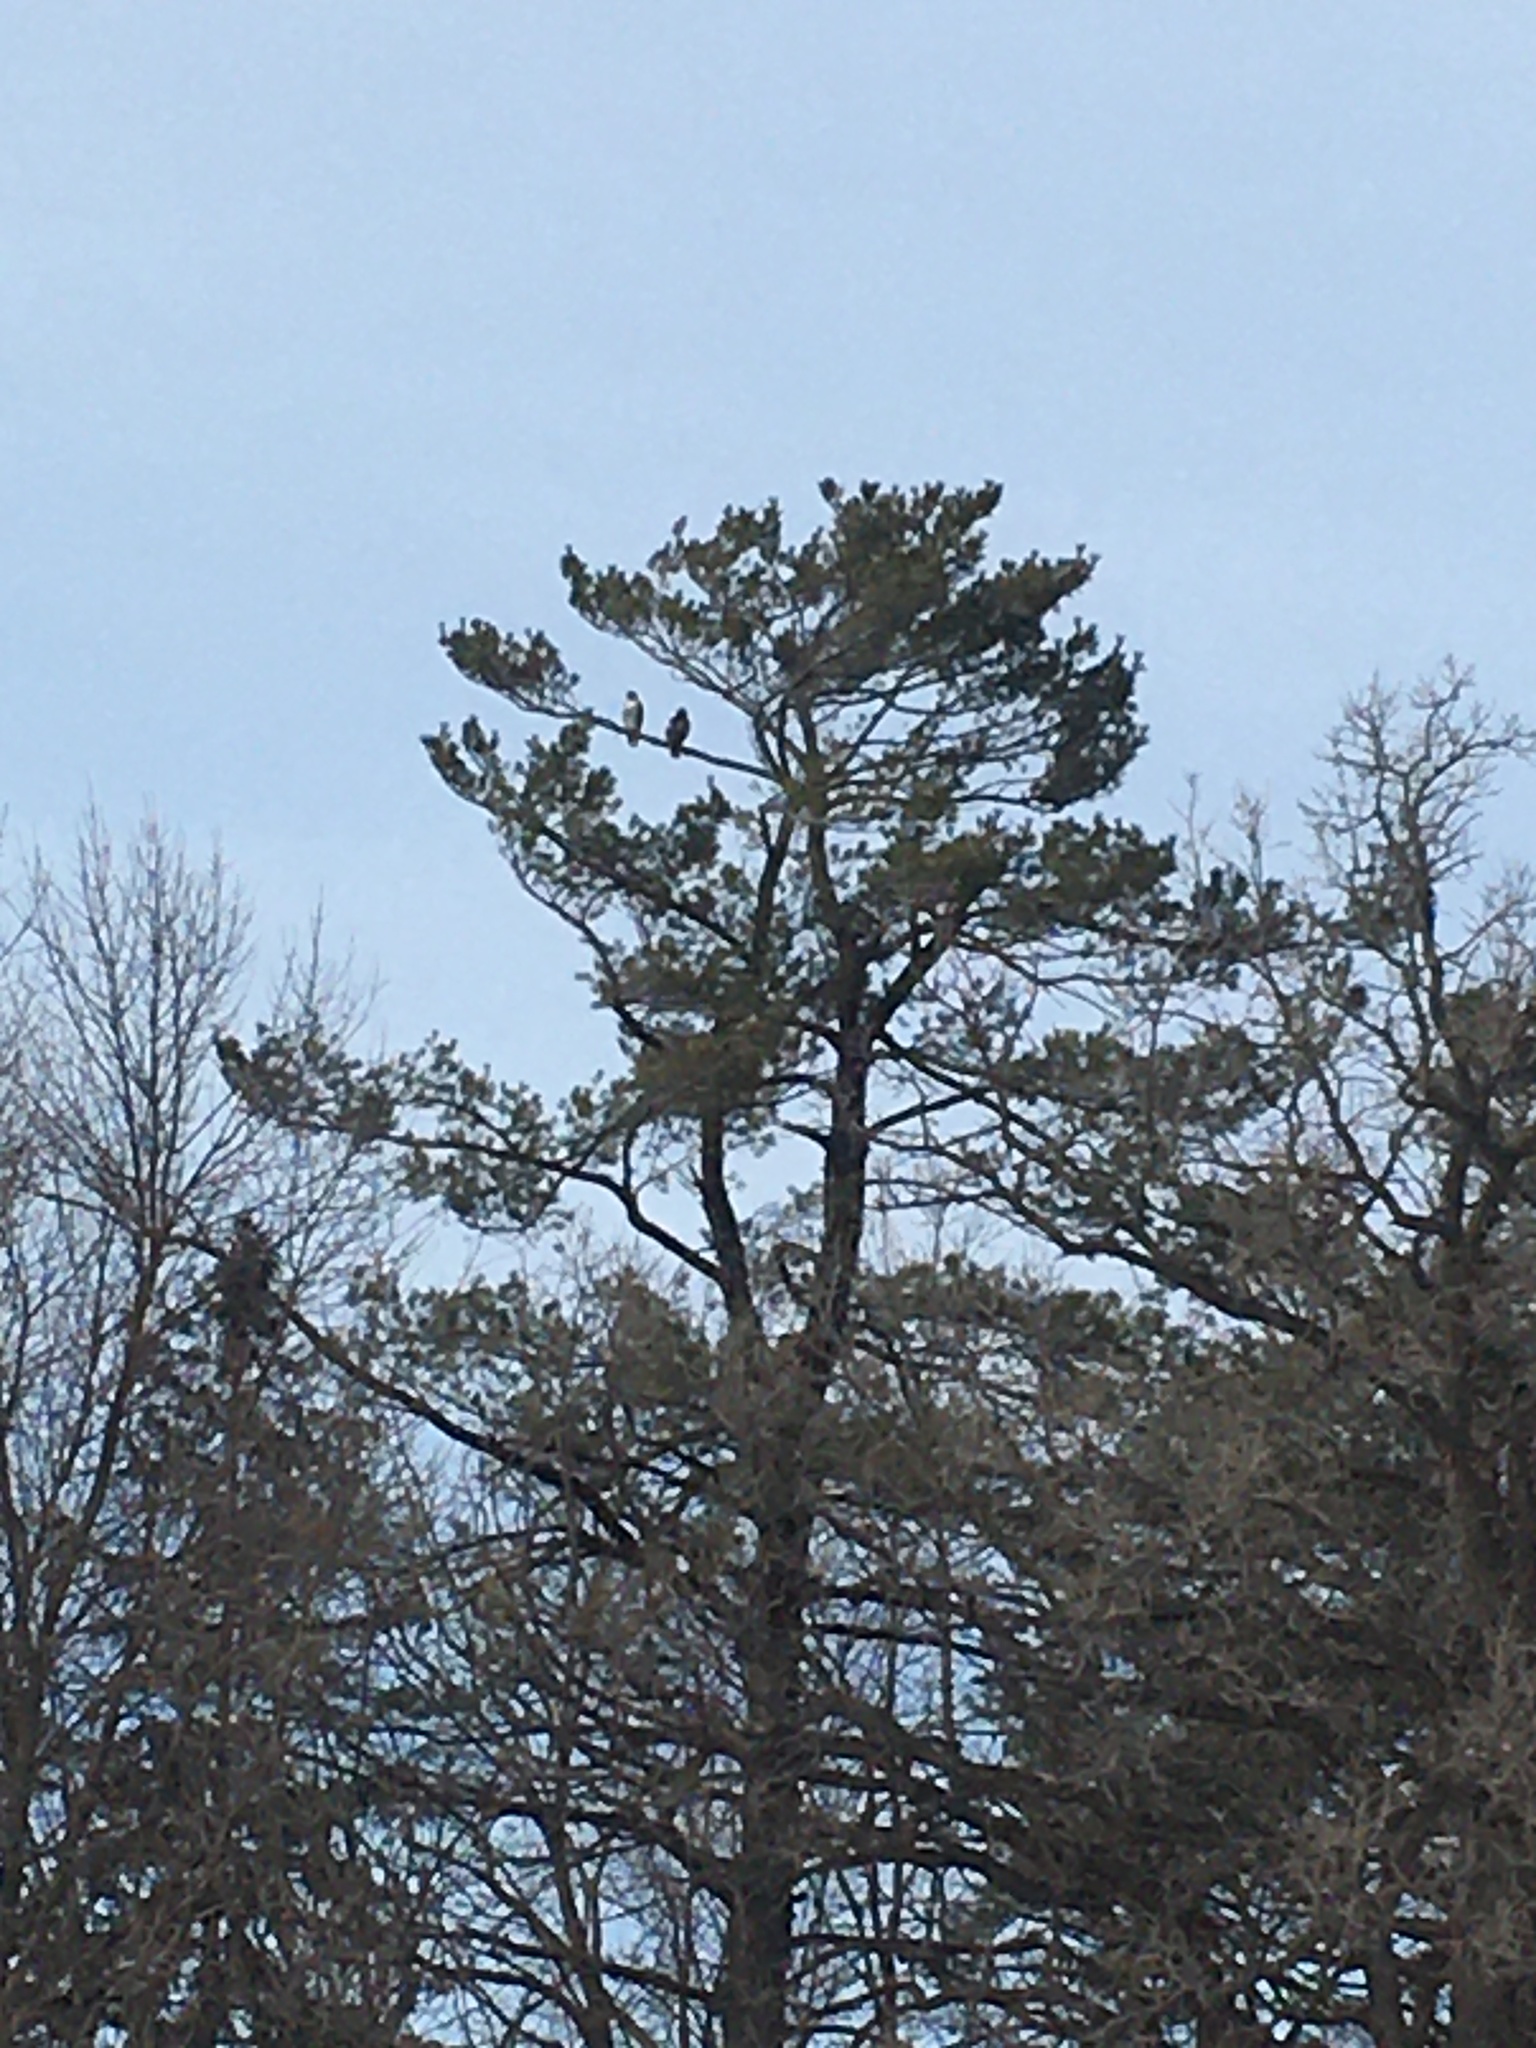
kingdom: Animalia
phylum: Chordata
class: Aves
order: Accipitriformes
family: Accipitridae
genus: Buteo
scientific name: Buteo jamaicensis
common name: Red-tailed hawk
